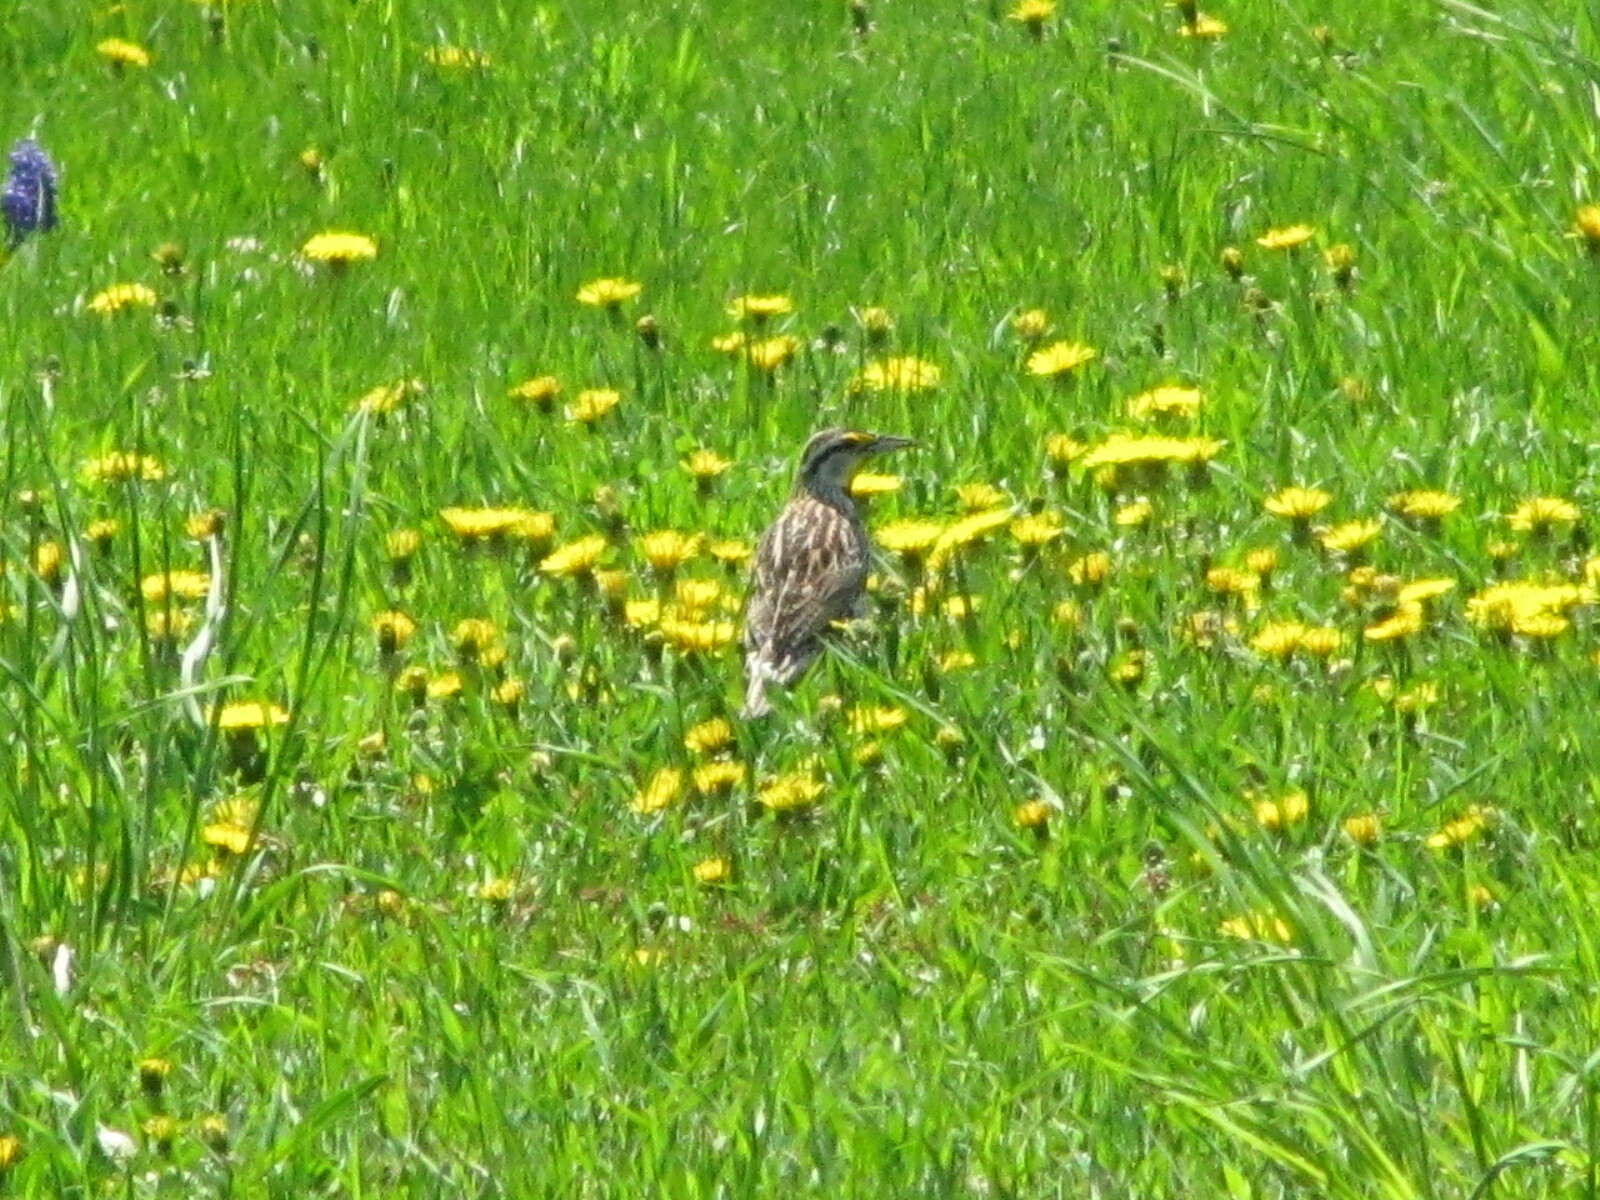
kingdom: Animalia
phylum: Chordata
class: Aves
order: Passeriformes
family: Icteridae
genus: Sturnella
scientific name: Sturnella magna
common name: Eastern meadowlark
